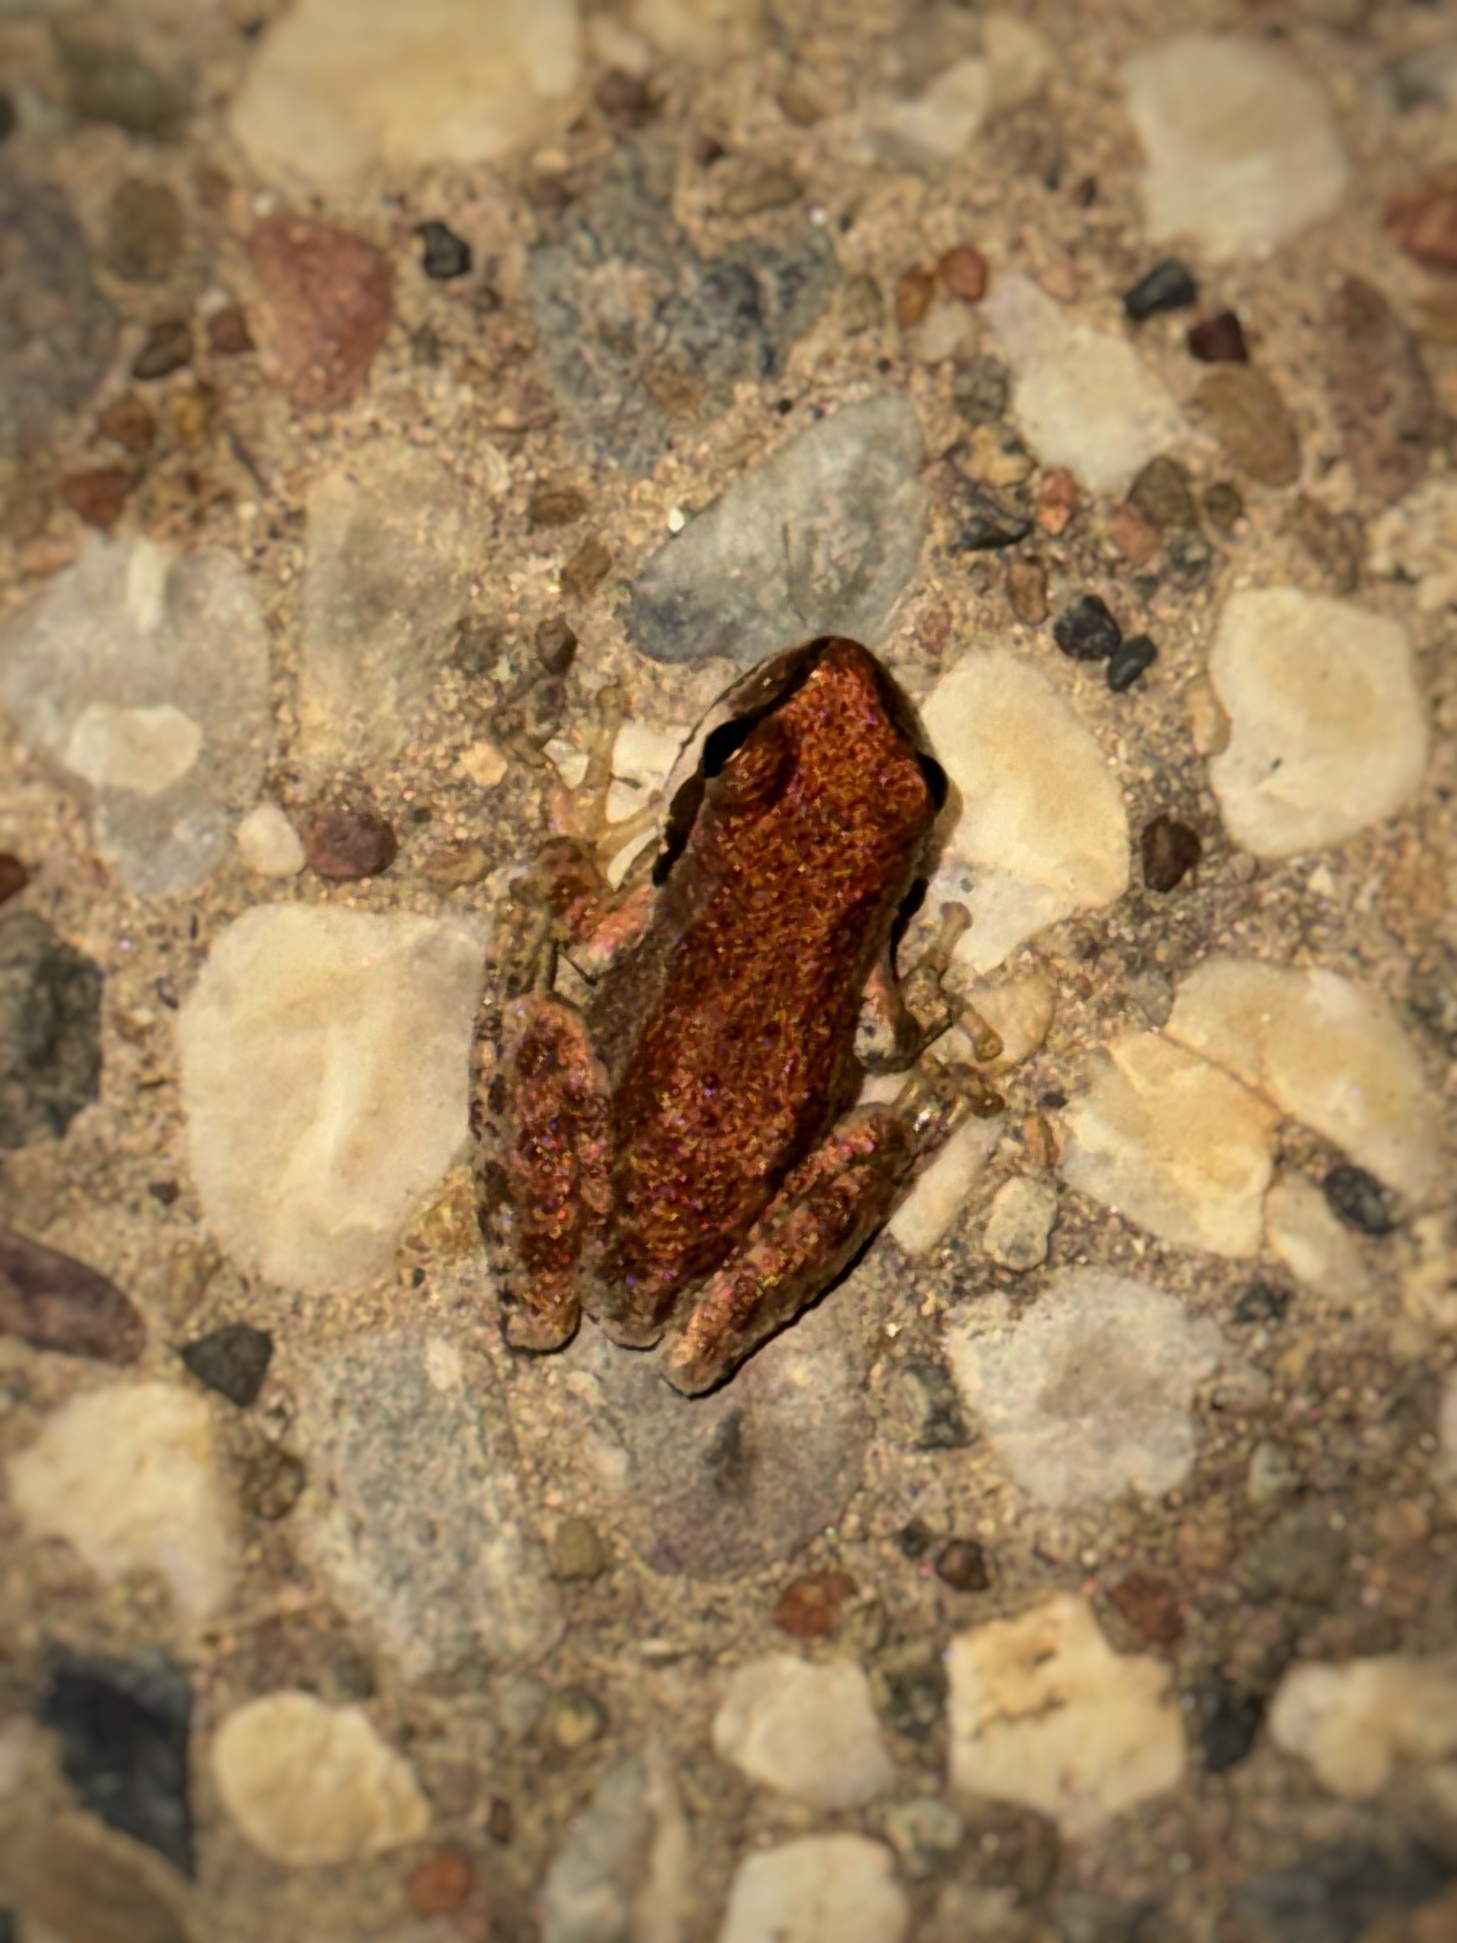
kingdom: Animalia
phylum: Chordata
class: Amphibia
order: Anura
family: Hylidae
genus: Pseudacris
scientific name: Pseudacris regilla
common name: Pacific chorus frog
